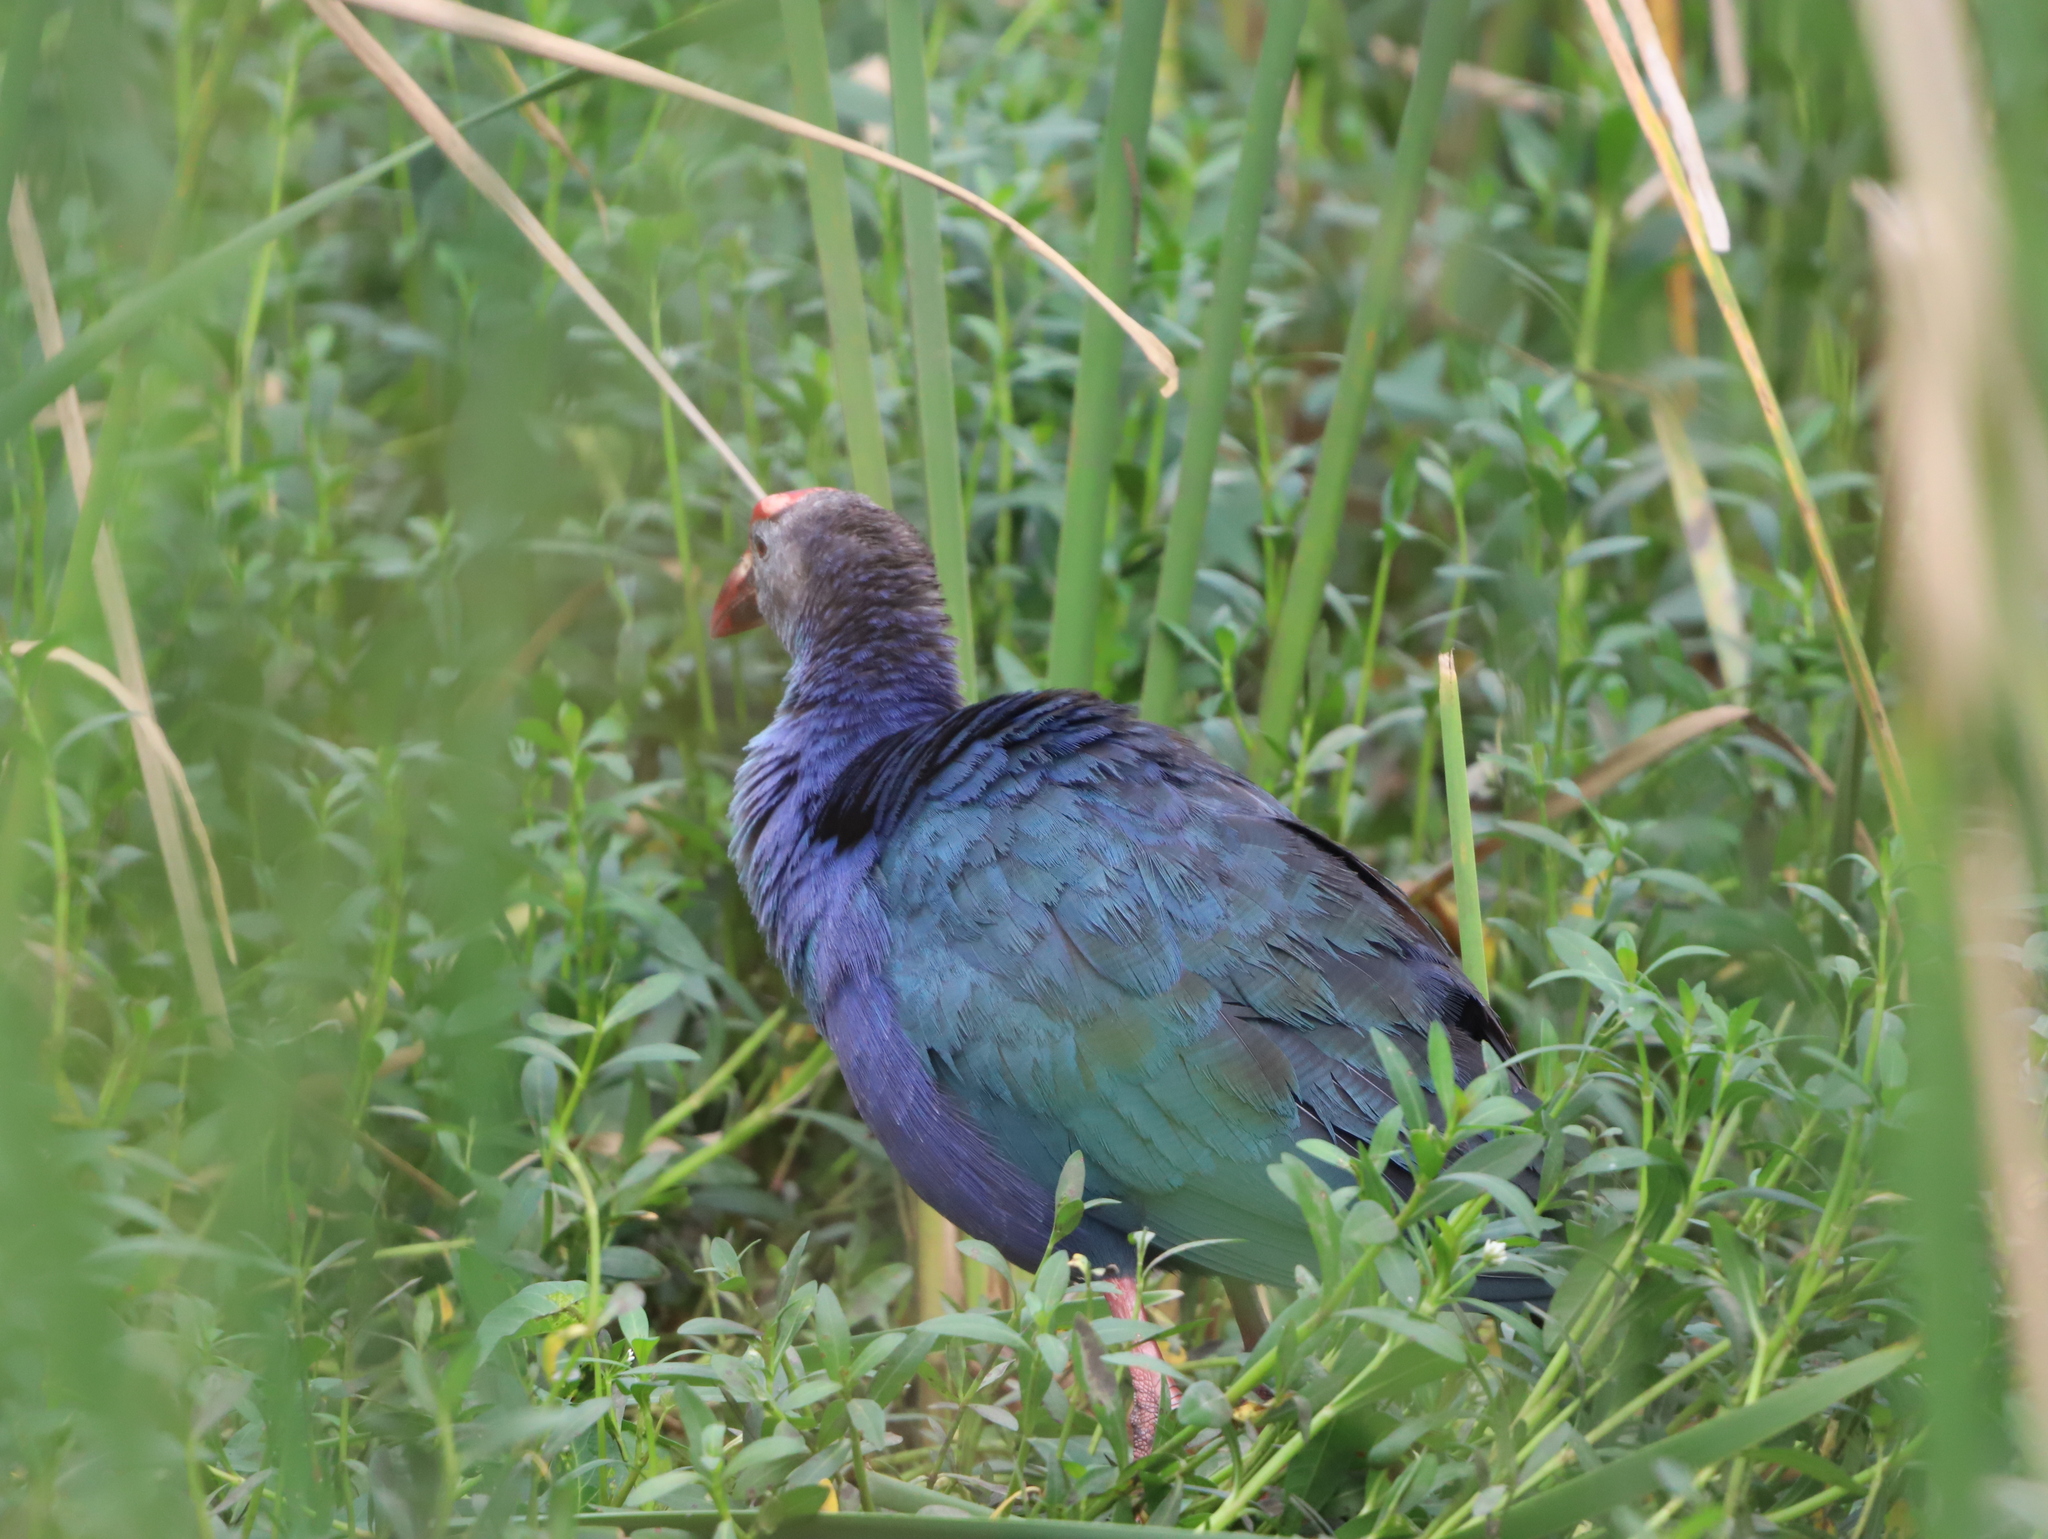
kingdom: Animalia
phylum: Chordata
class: Aves
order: Gruiformes
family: Rallidae
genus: Porphyrio
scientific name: Porphyrio porphyrio
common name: Purple swamphen
